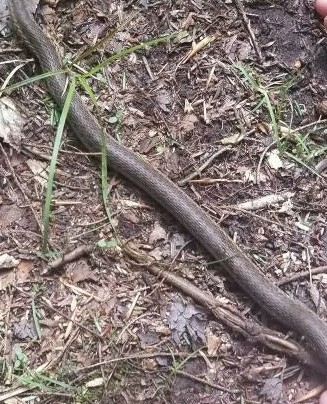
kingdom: Animalia
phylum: Chordata
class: Squamata
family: Colubridae
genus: Thamnophis
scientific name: Thamnophis sirtalis
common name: Common garter snake
